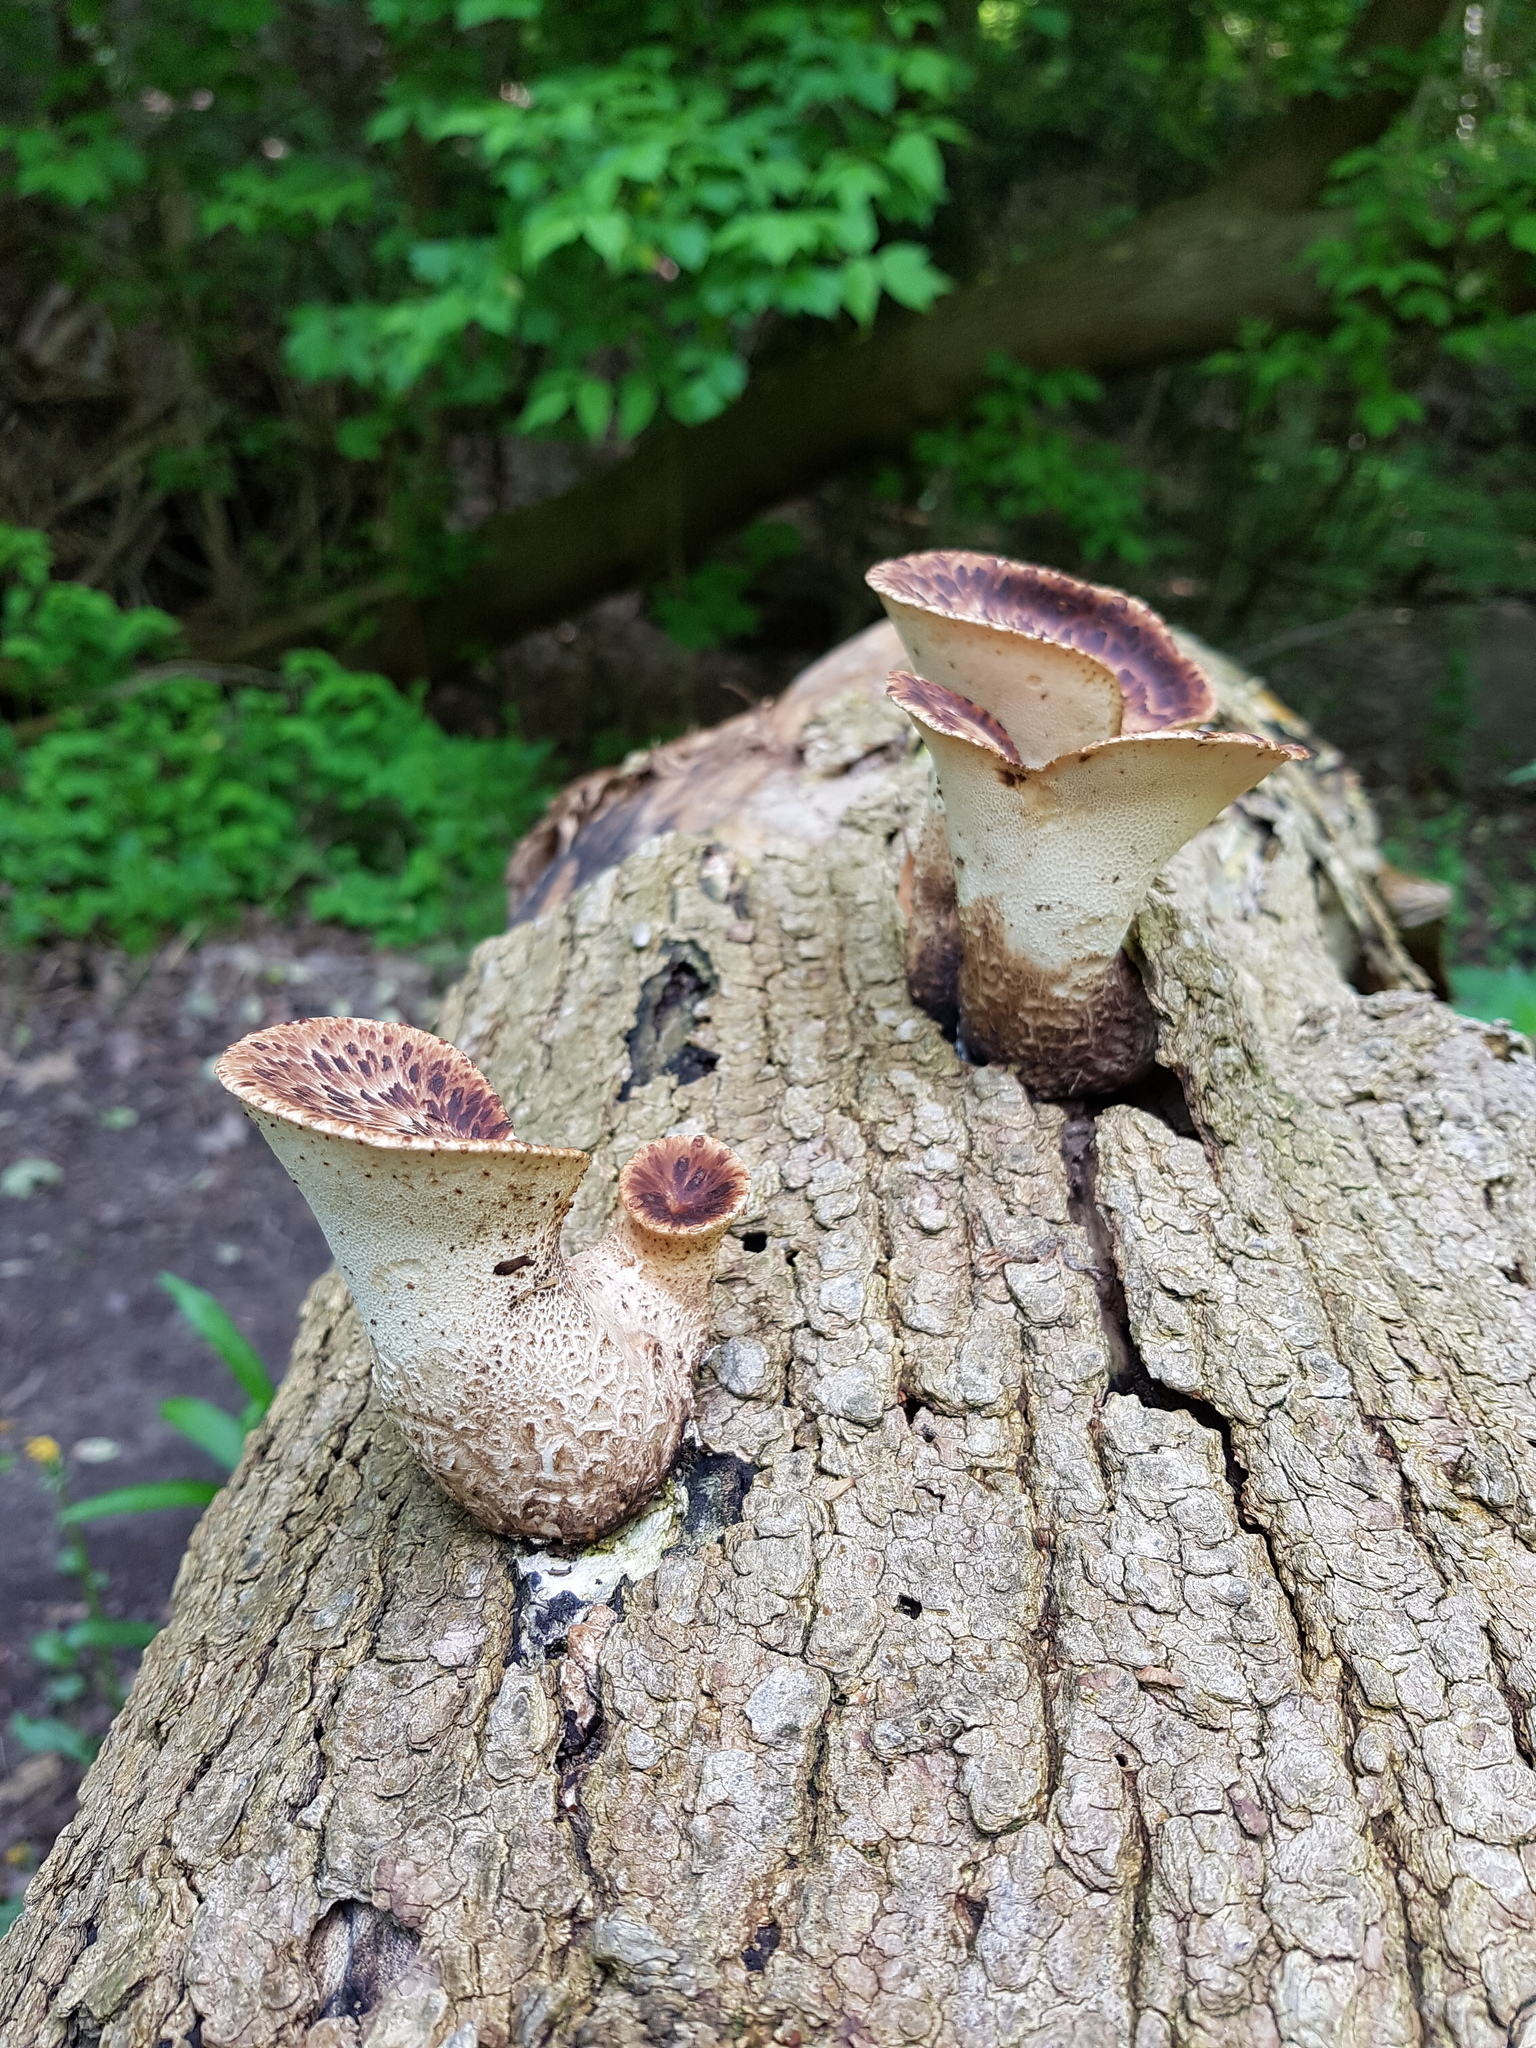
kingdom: Fungi
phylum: Basidiomycota
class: Agaricomycetes
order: Polyporales
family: Polyporaceae
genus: Cerioporus
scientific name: Cerioporus squamosus
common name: Dryad's saddle
